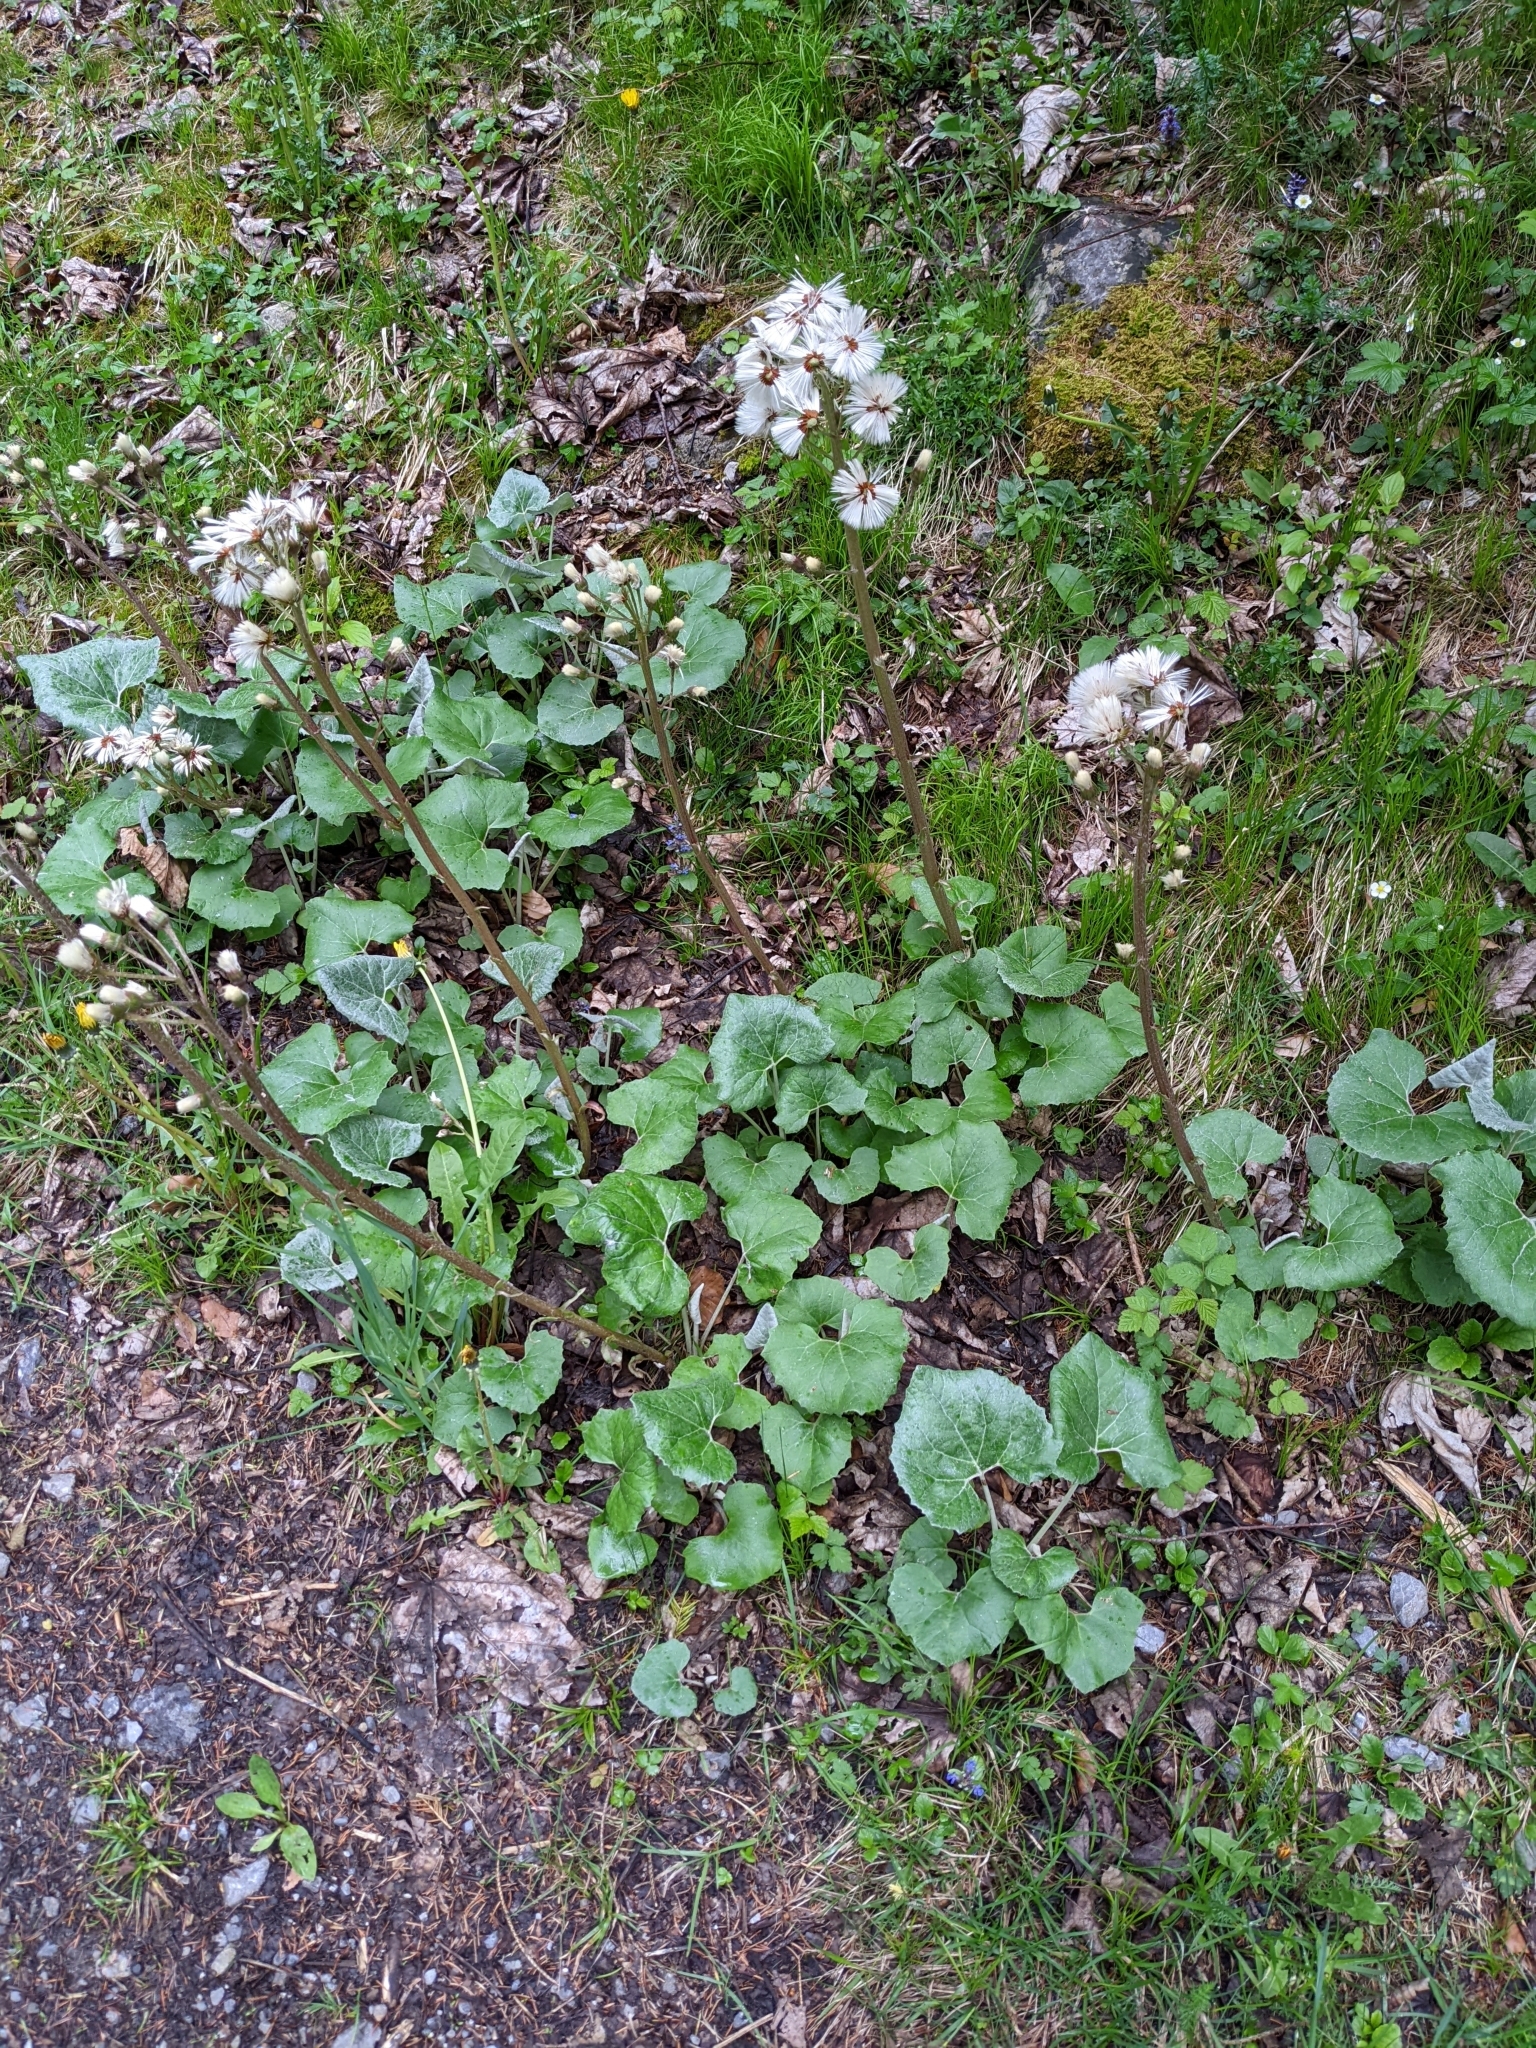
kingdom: Plantae
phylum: Tracheophyta
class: Magnoliopsida
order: Asterales
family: Asteraceae
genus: Petasites
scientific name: Petasites paradoxus
